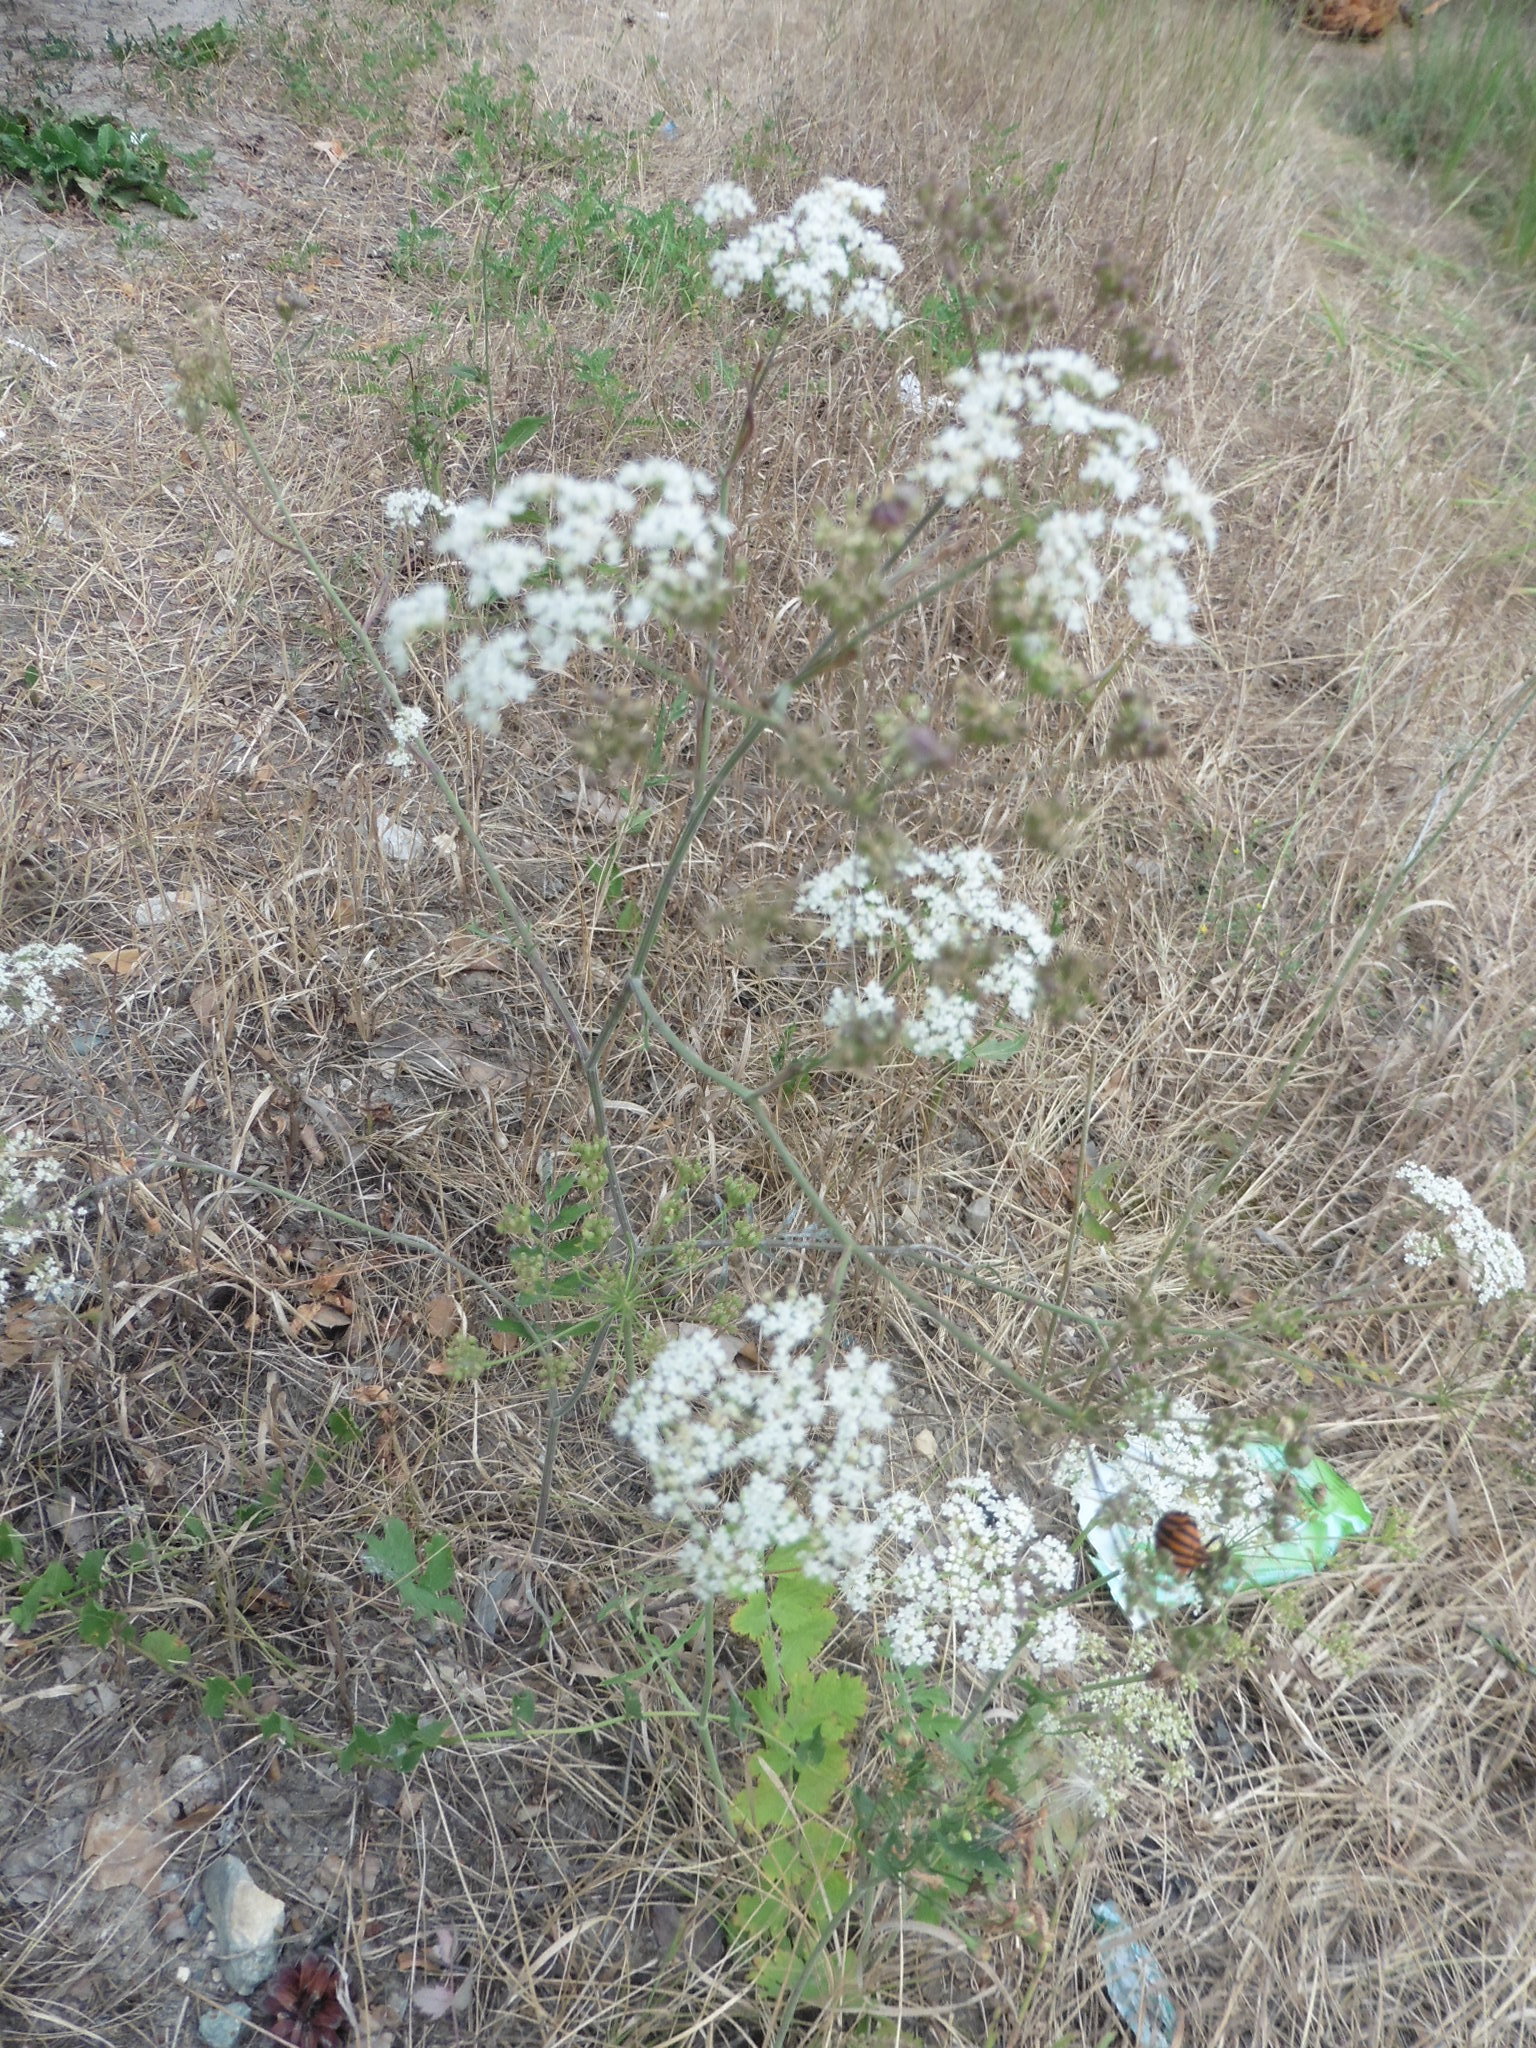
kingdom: Plantae
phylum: Tracheophyta
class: Magnoliopsida
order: Apiales
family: Apiaceae
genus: Pimpinella
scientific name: Pimpinella saxifraga
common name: Burnet-saxifrage
